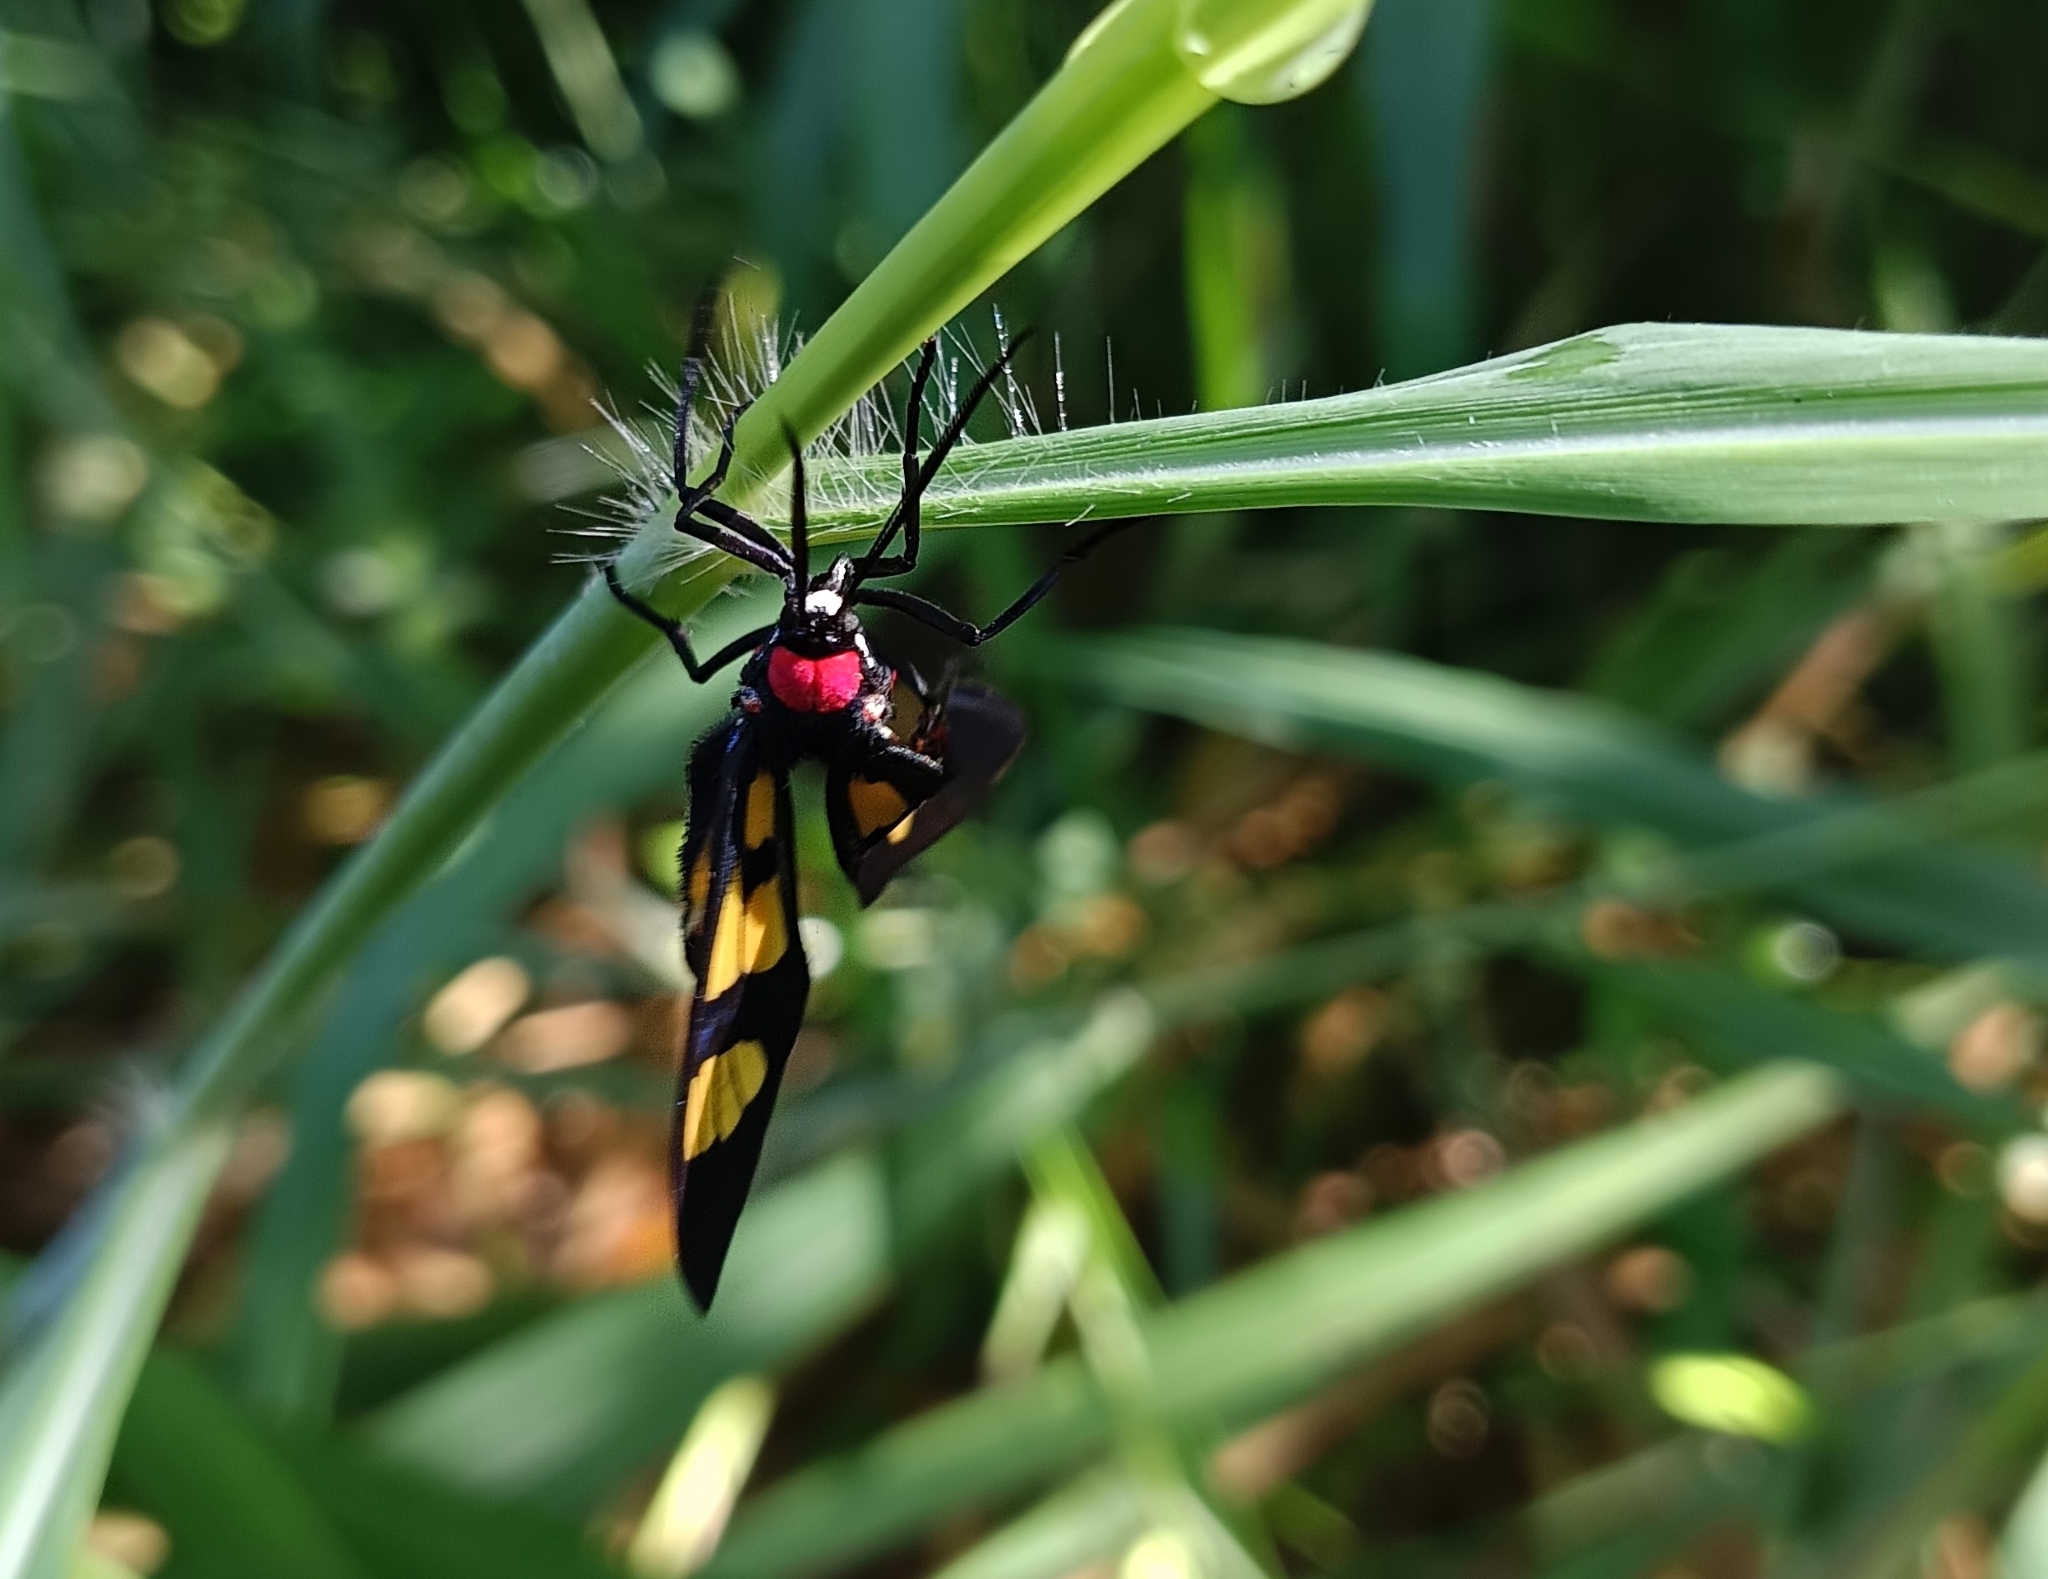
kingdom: Animalia
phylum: Arthropoda
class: Insecta
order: Lepidoptera
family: Erebidae
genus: Euchromia
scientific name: Euchromia polymena
